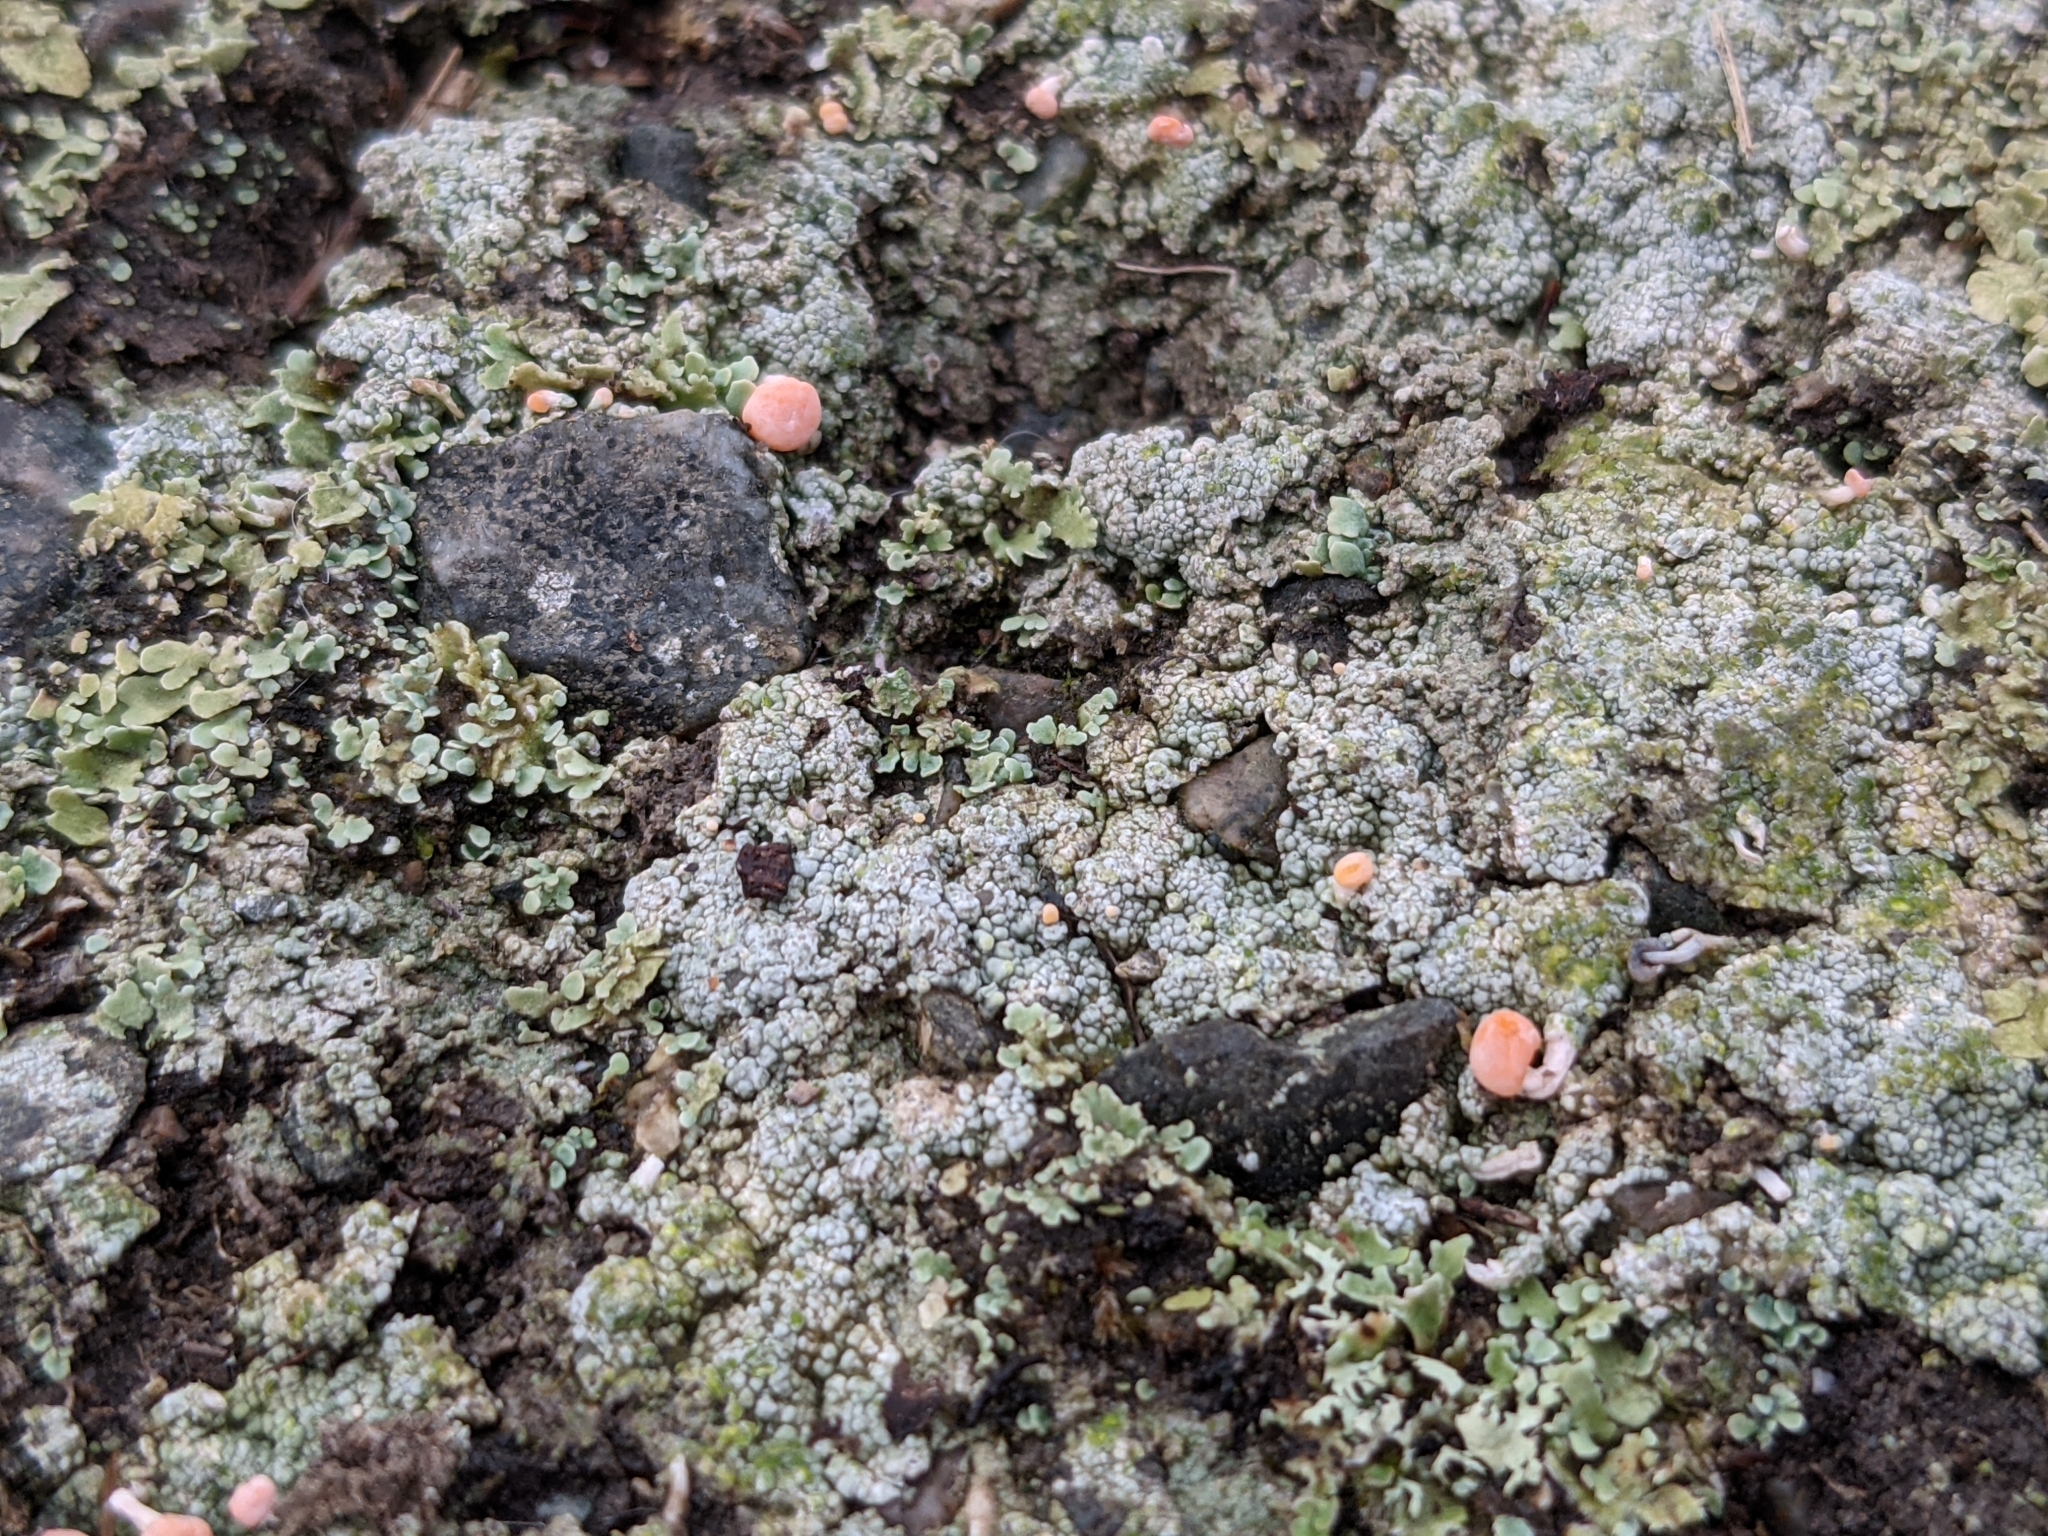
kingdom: Fungi
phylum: Ascomycota
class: Lecanoromycetes
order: Pertusariales
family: Icmadophilaceae
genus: Dibaeis
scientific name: Dibaeis baeomyces
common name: Pink earth lichen
